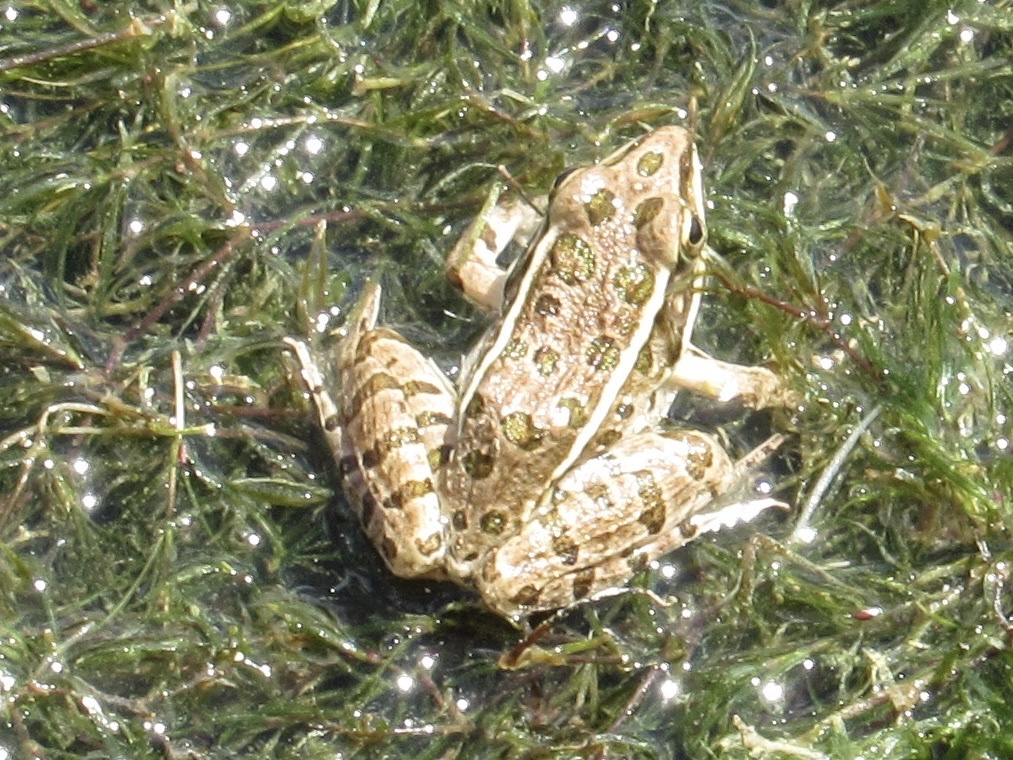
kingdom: Animalia
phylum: Chordata
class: Amphibia
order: Anura
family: Ranidae
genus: Lithobates
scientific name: Lithobates blairi
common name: Plains leopard frog
